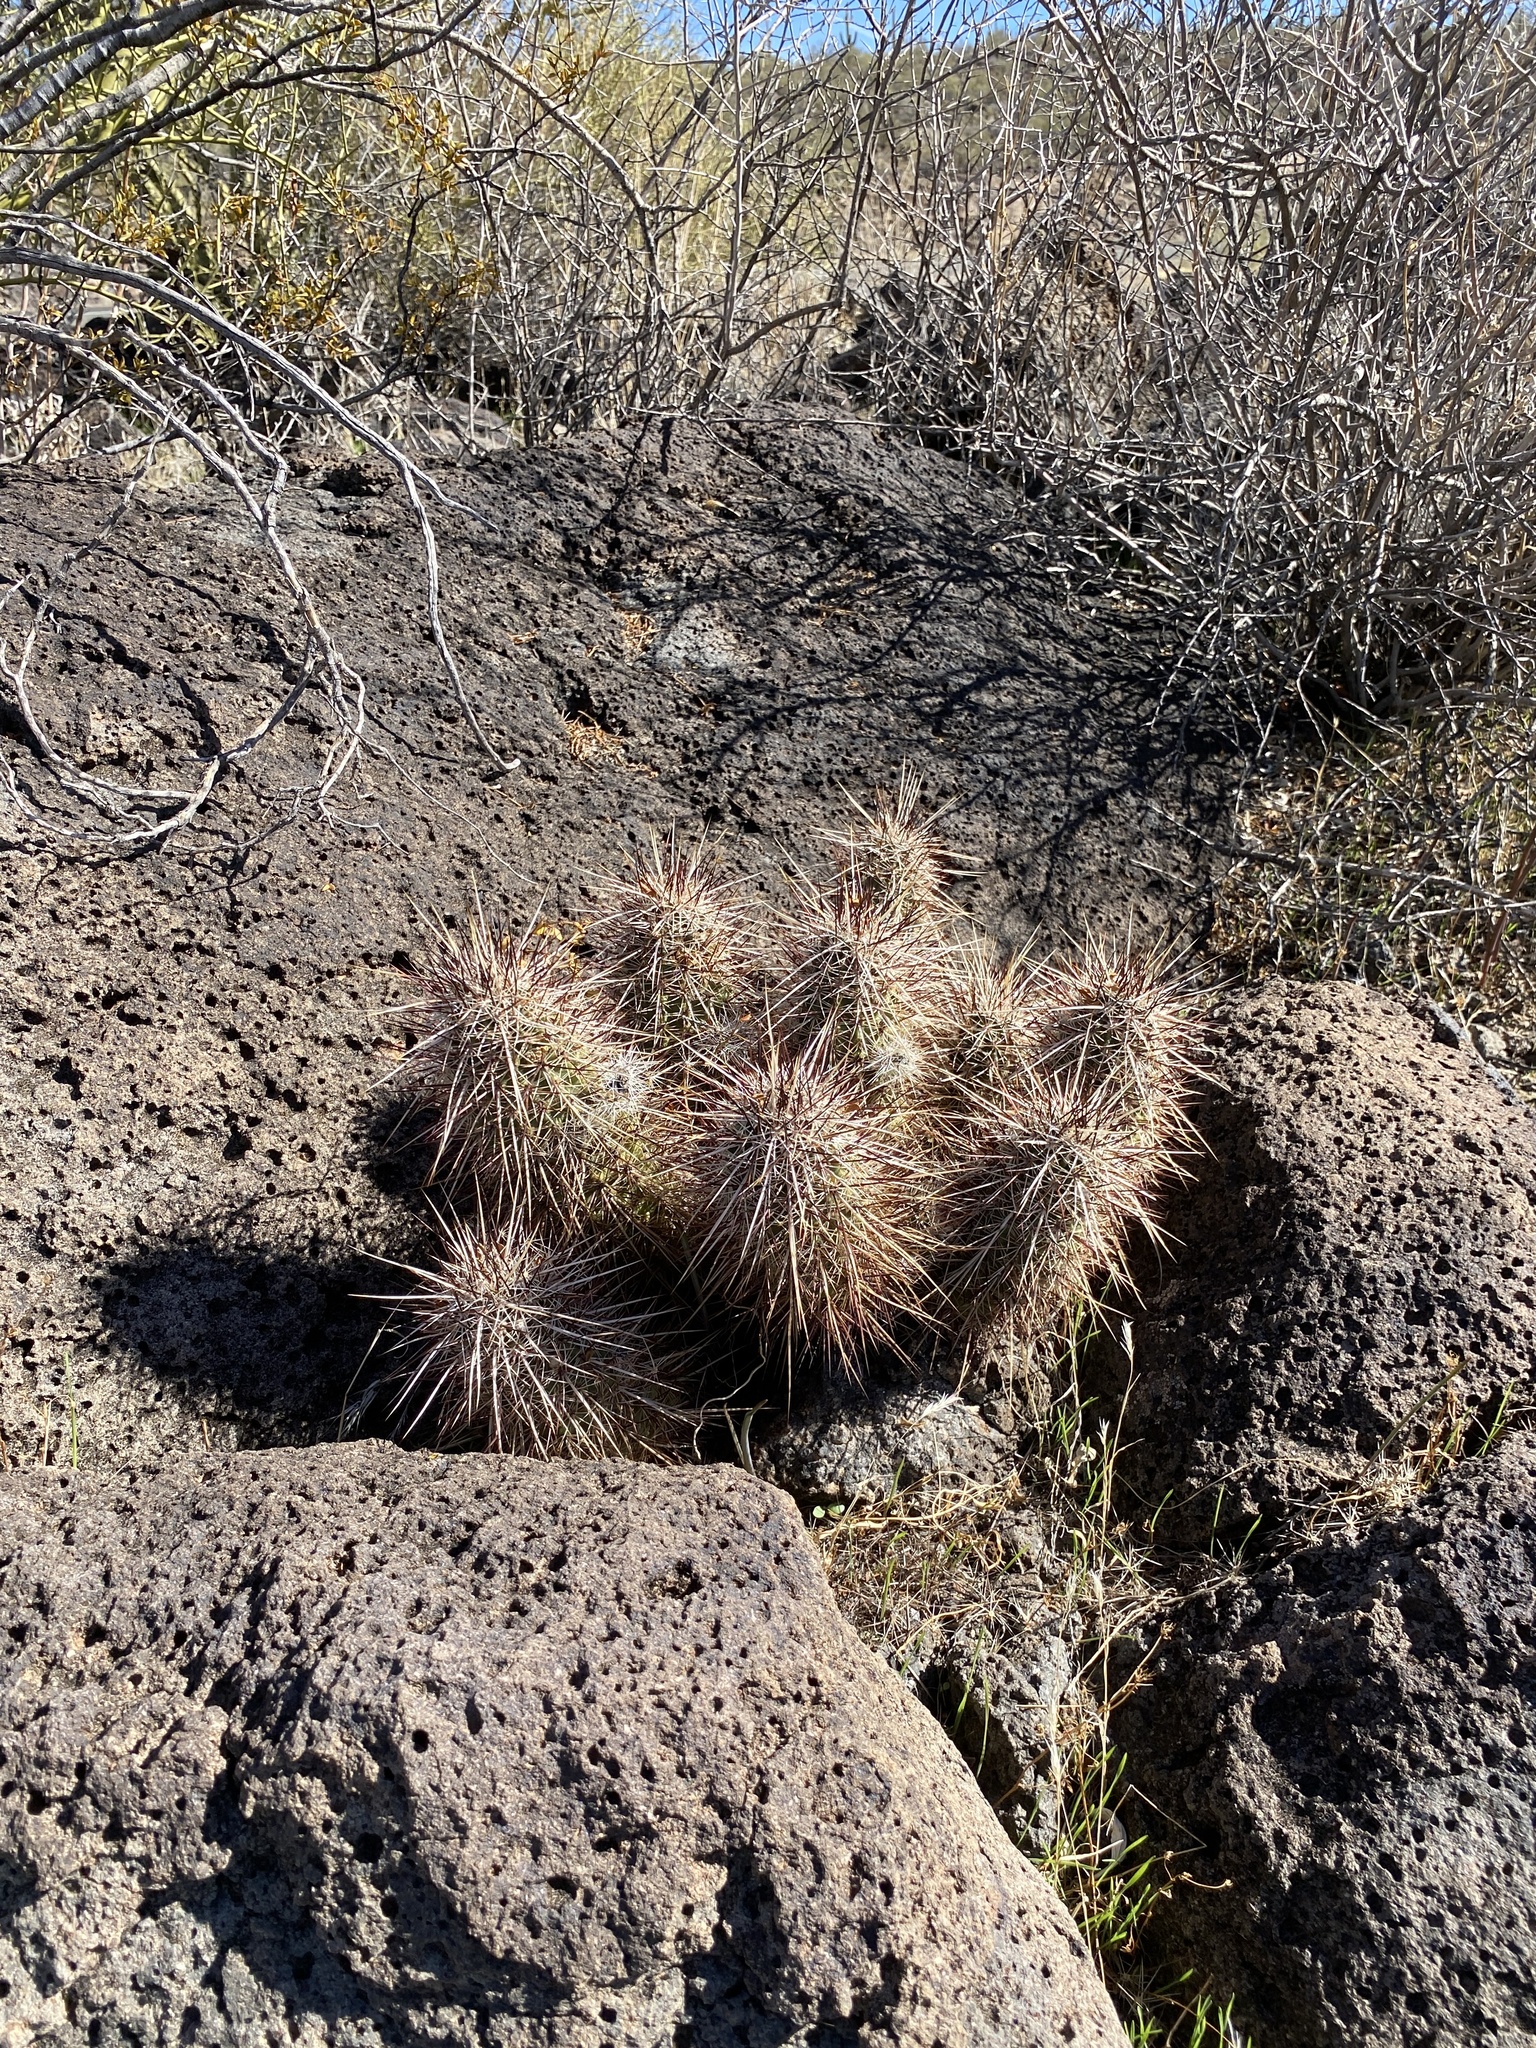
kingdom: Plantae
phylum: Tracheophyta
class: Magnoliopsida
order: Caryophyllales
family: Cactaceae
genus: Echinocereus
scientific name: Echinocereus engelmannii
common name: Engelmann's hedgehog cactus
